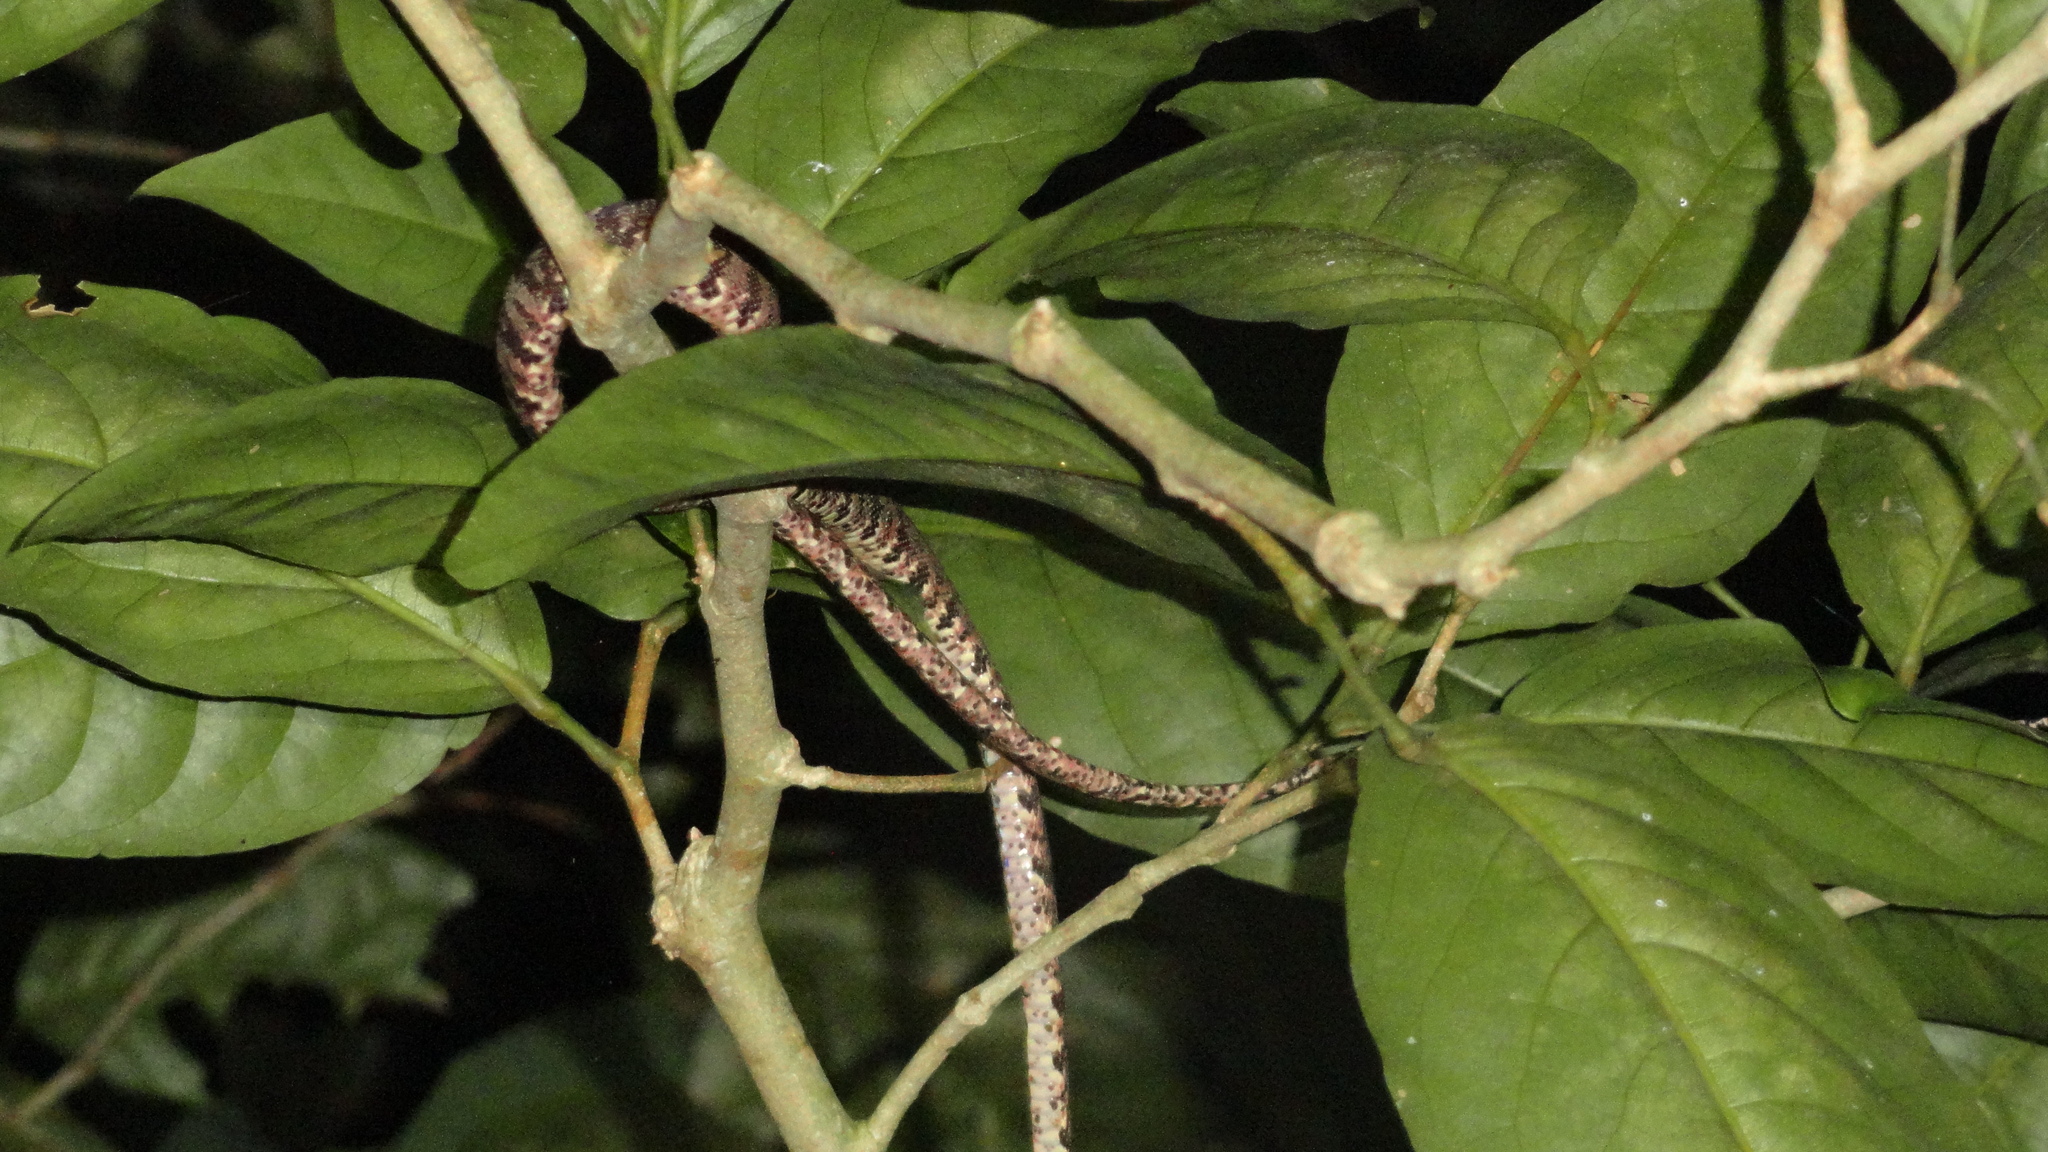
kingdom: Animalia
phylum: Chordata
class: Squamata
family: Boidae
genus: Corallus
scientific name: Corallus hortulana
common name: Garden tree boa
